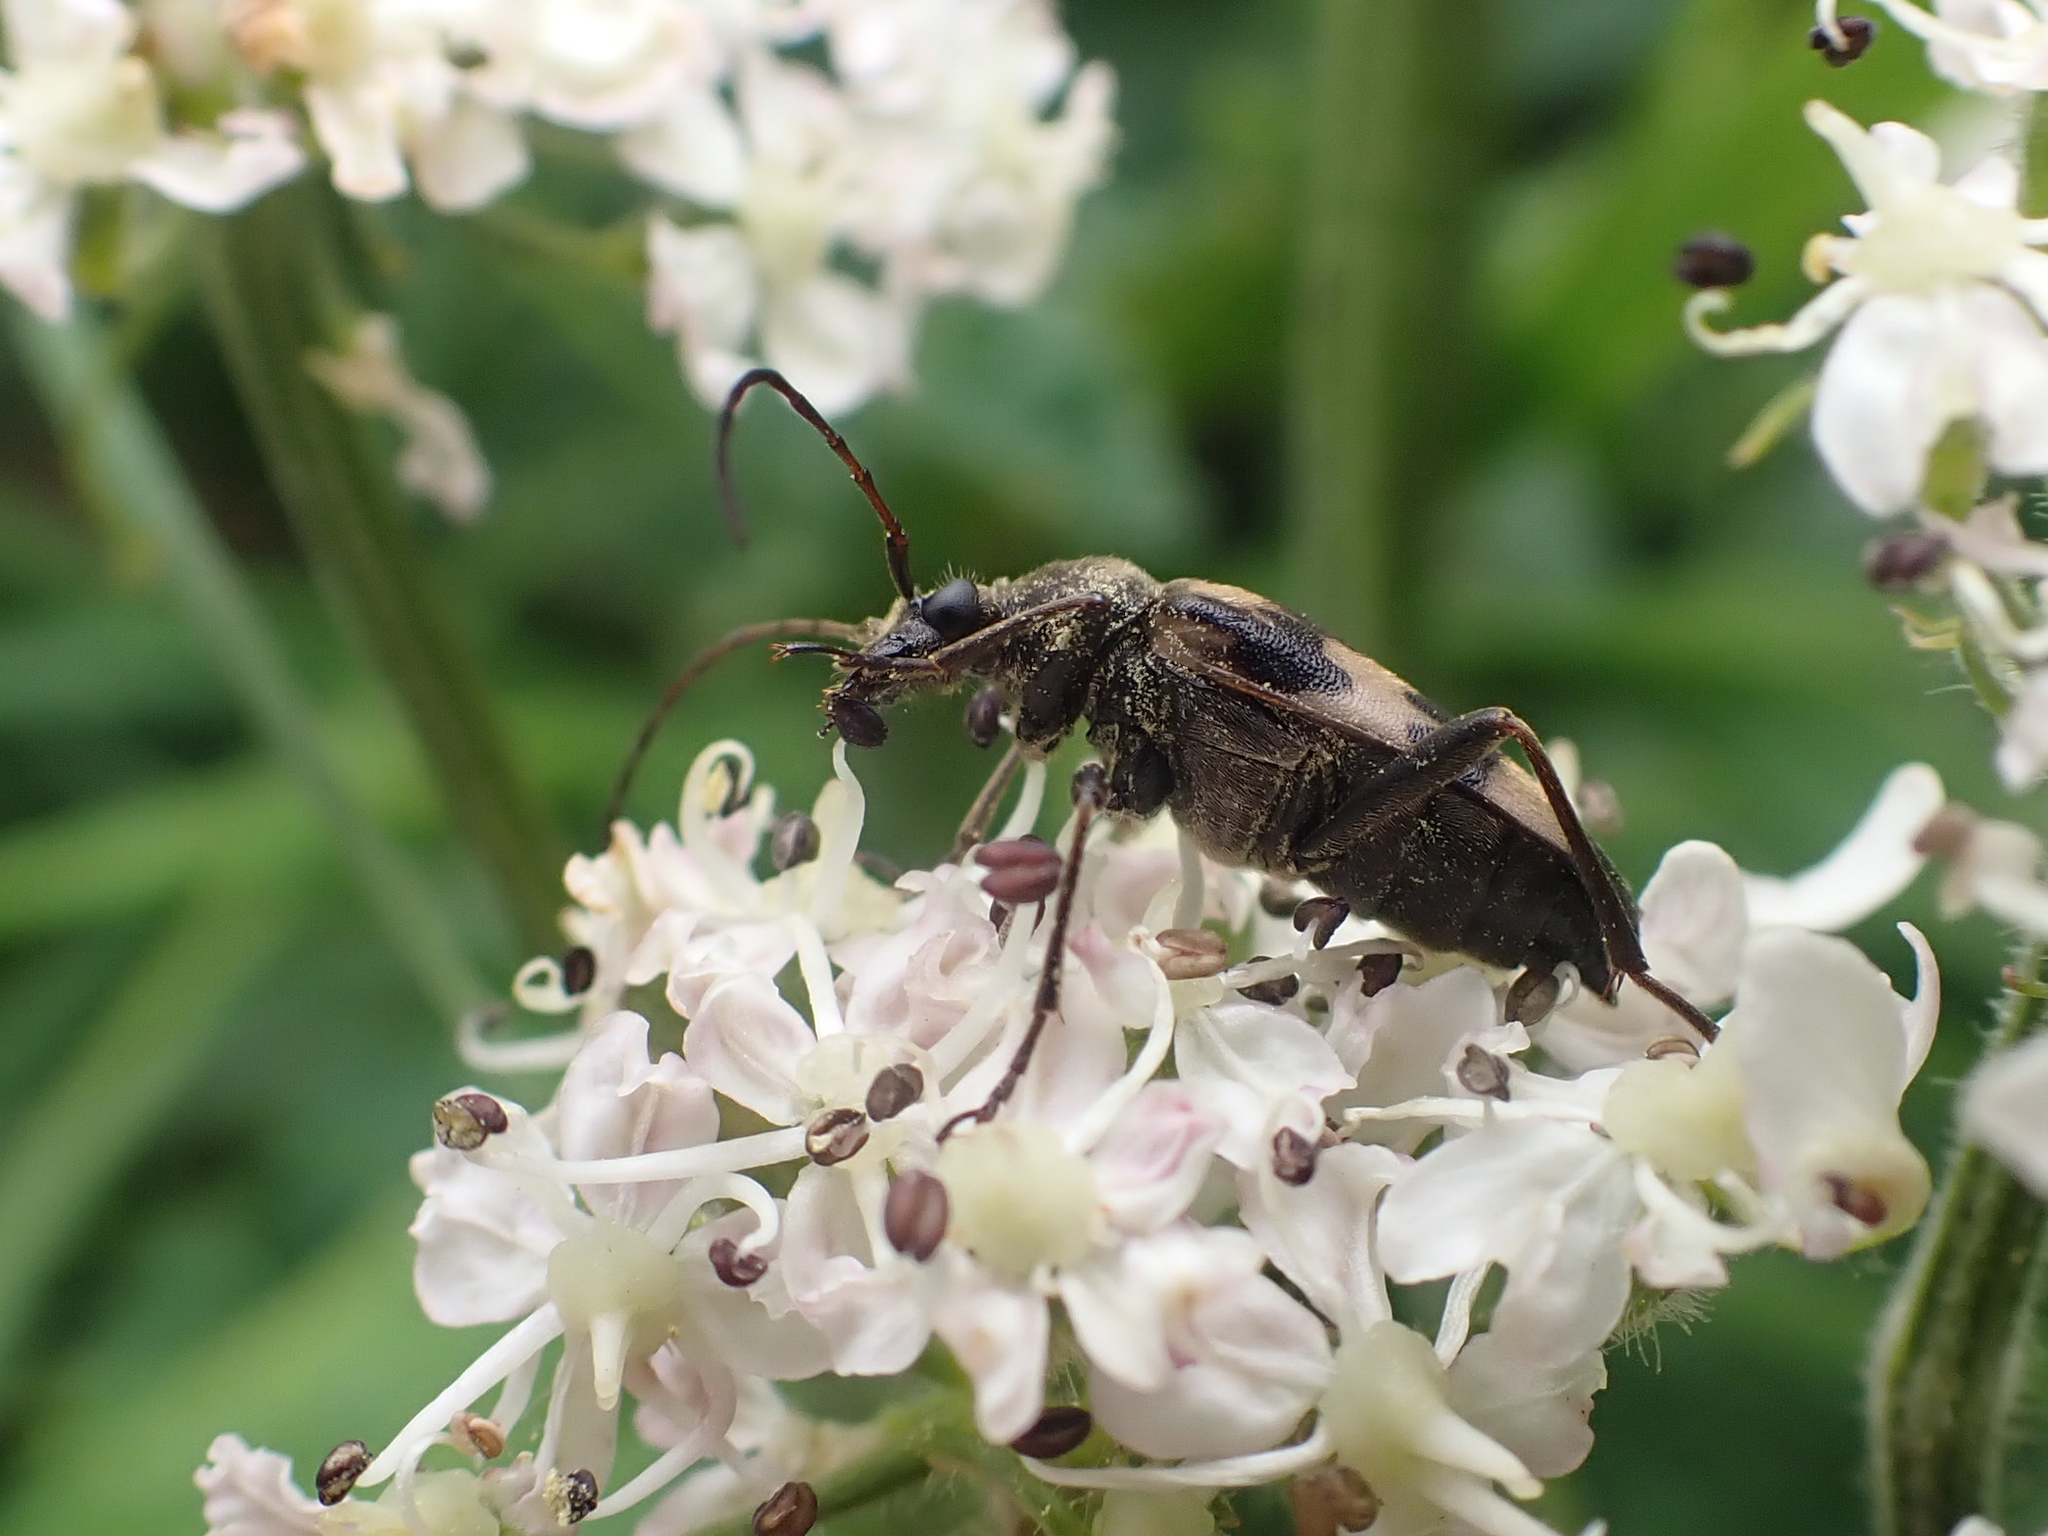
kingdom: Animalia
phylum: Arthropoda
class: Insecta
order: Coleoptera
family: Cerambycidae
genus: Judolia
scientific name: Judolia montivagans
